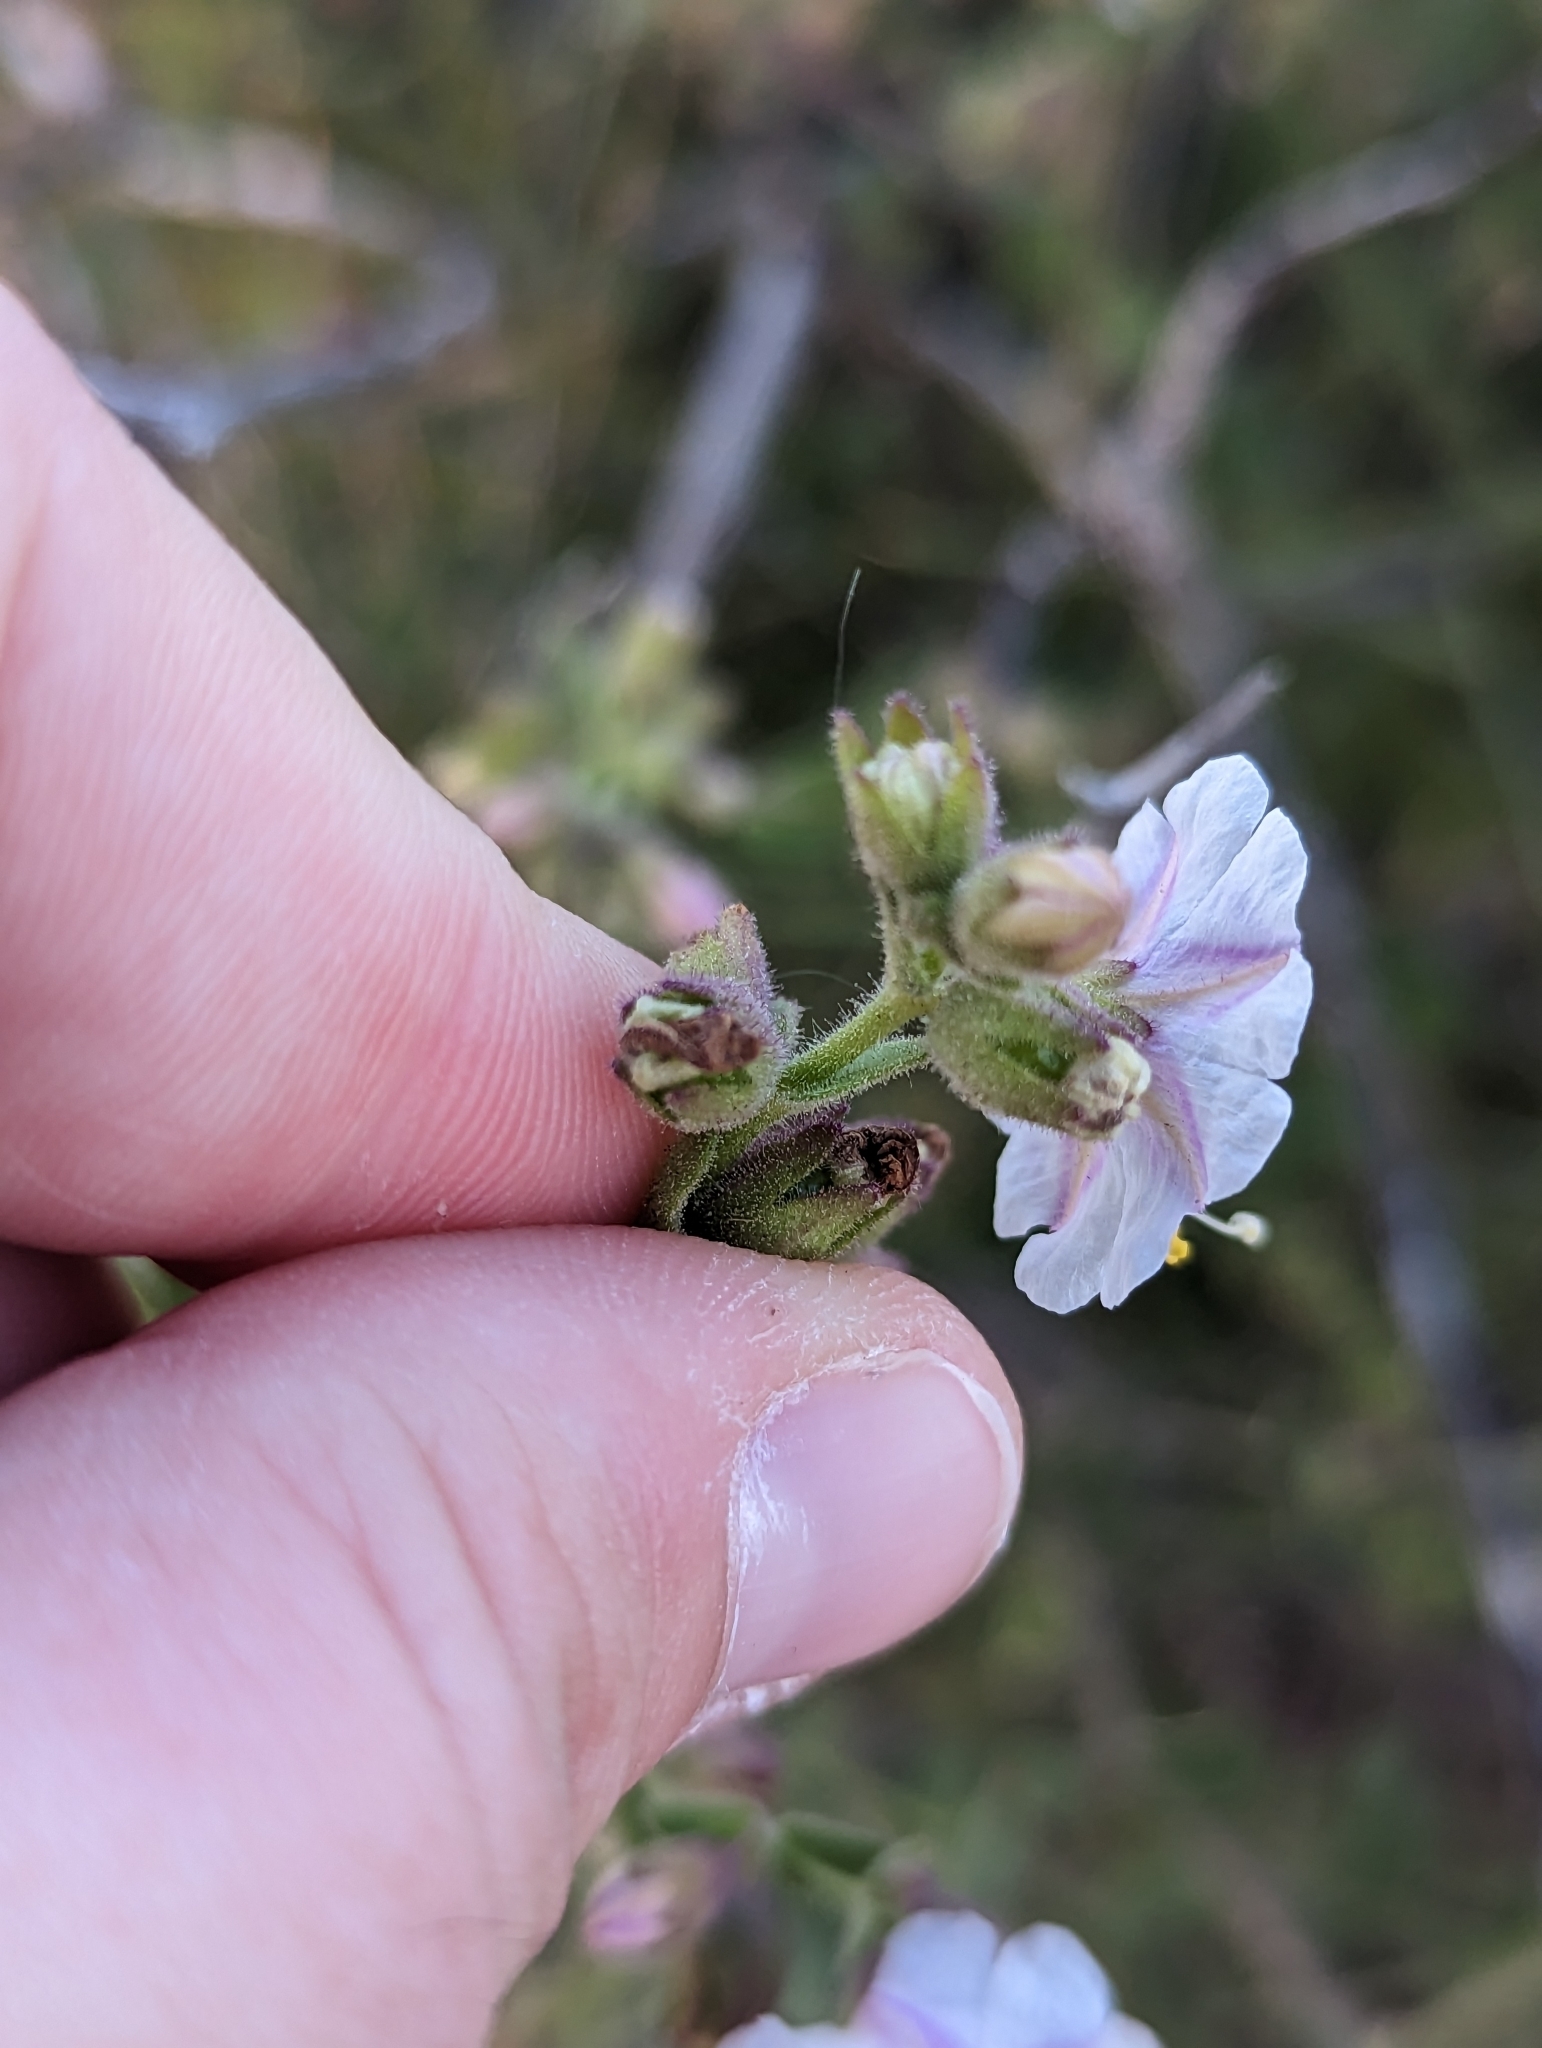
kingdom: Plantae
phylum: Tracheophyta
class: Magnoliopsida
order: Caryophyllales
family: Nyctaginaceae
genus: Mirabilis
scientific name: Mirabilis laevis
